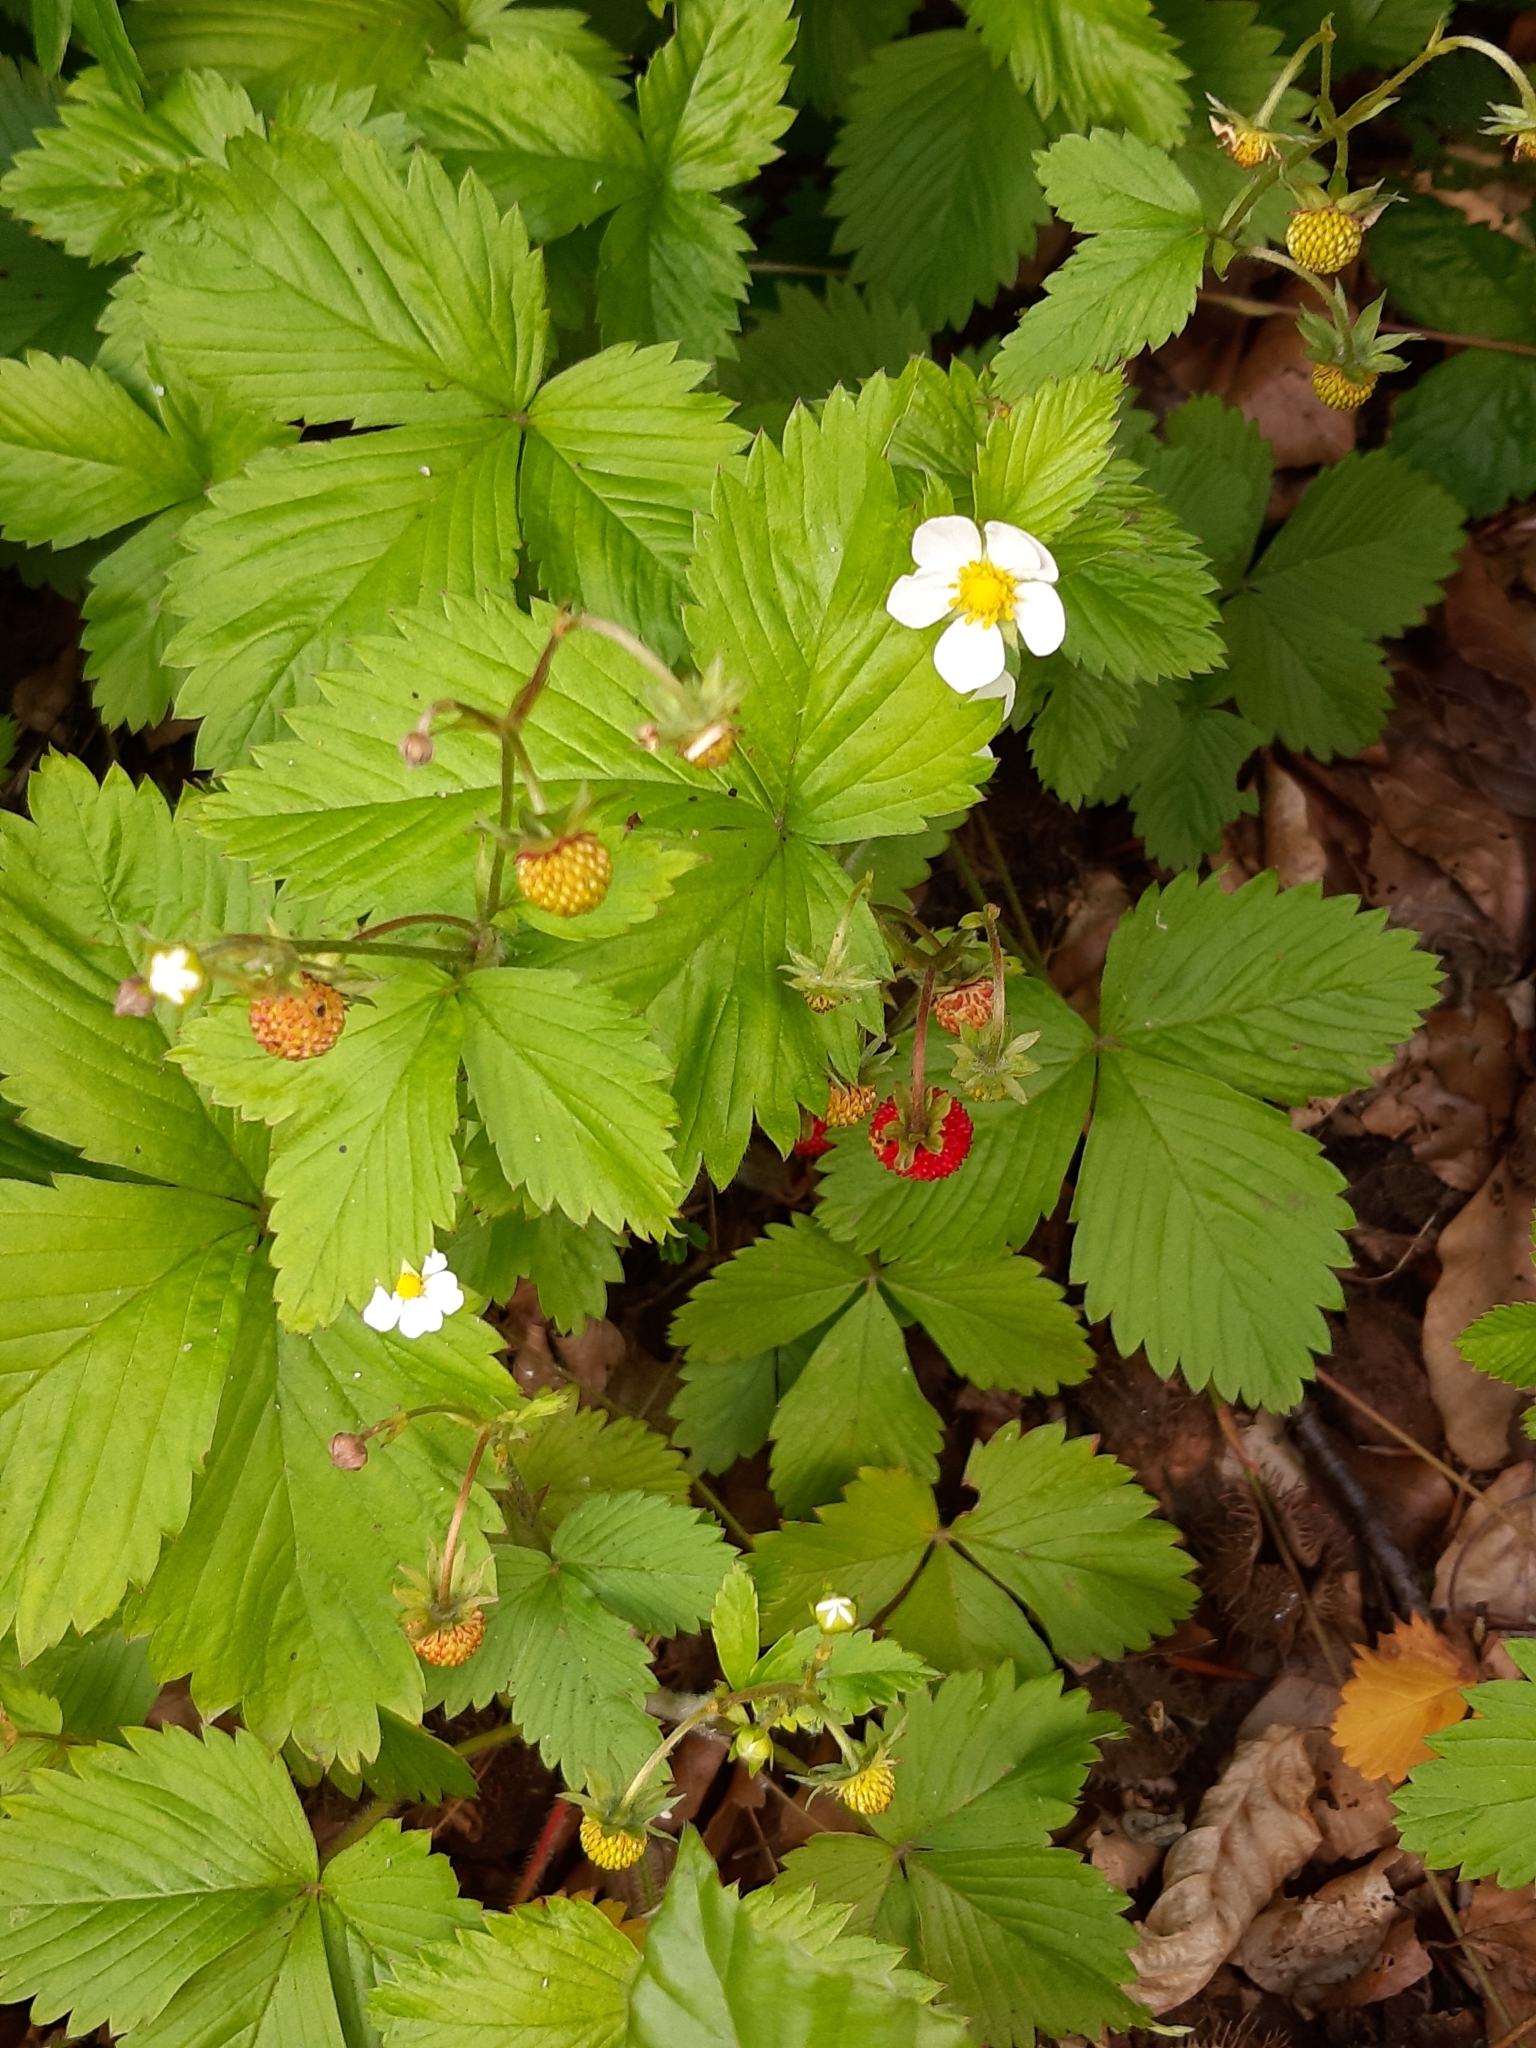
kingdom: Plantae
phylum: Tracheophyta
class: Magnoliopsida
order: Rosales
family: Rosaceae
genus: Fragaria
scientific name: Fragaria vesca
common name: Wild strawberry
